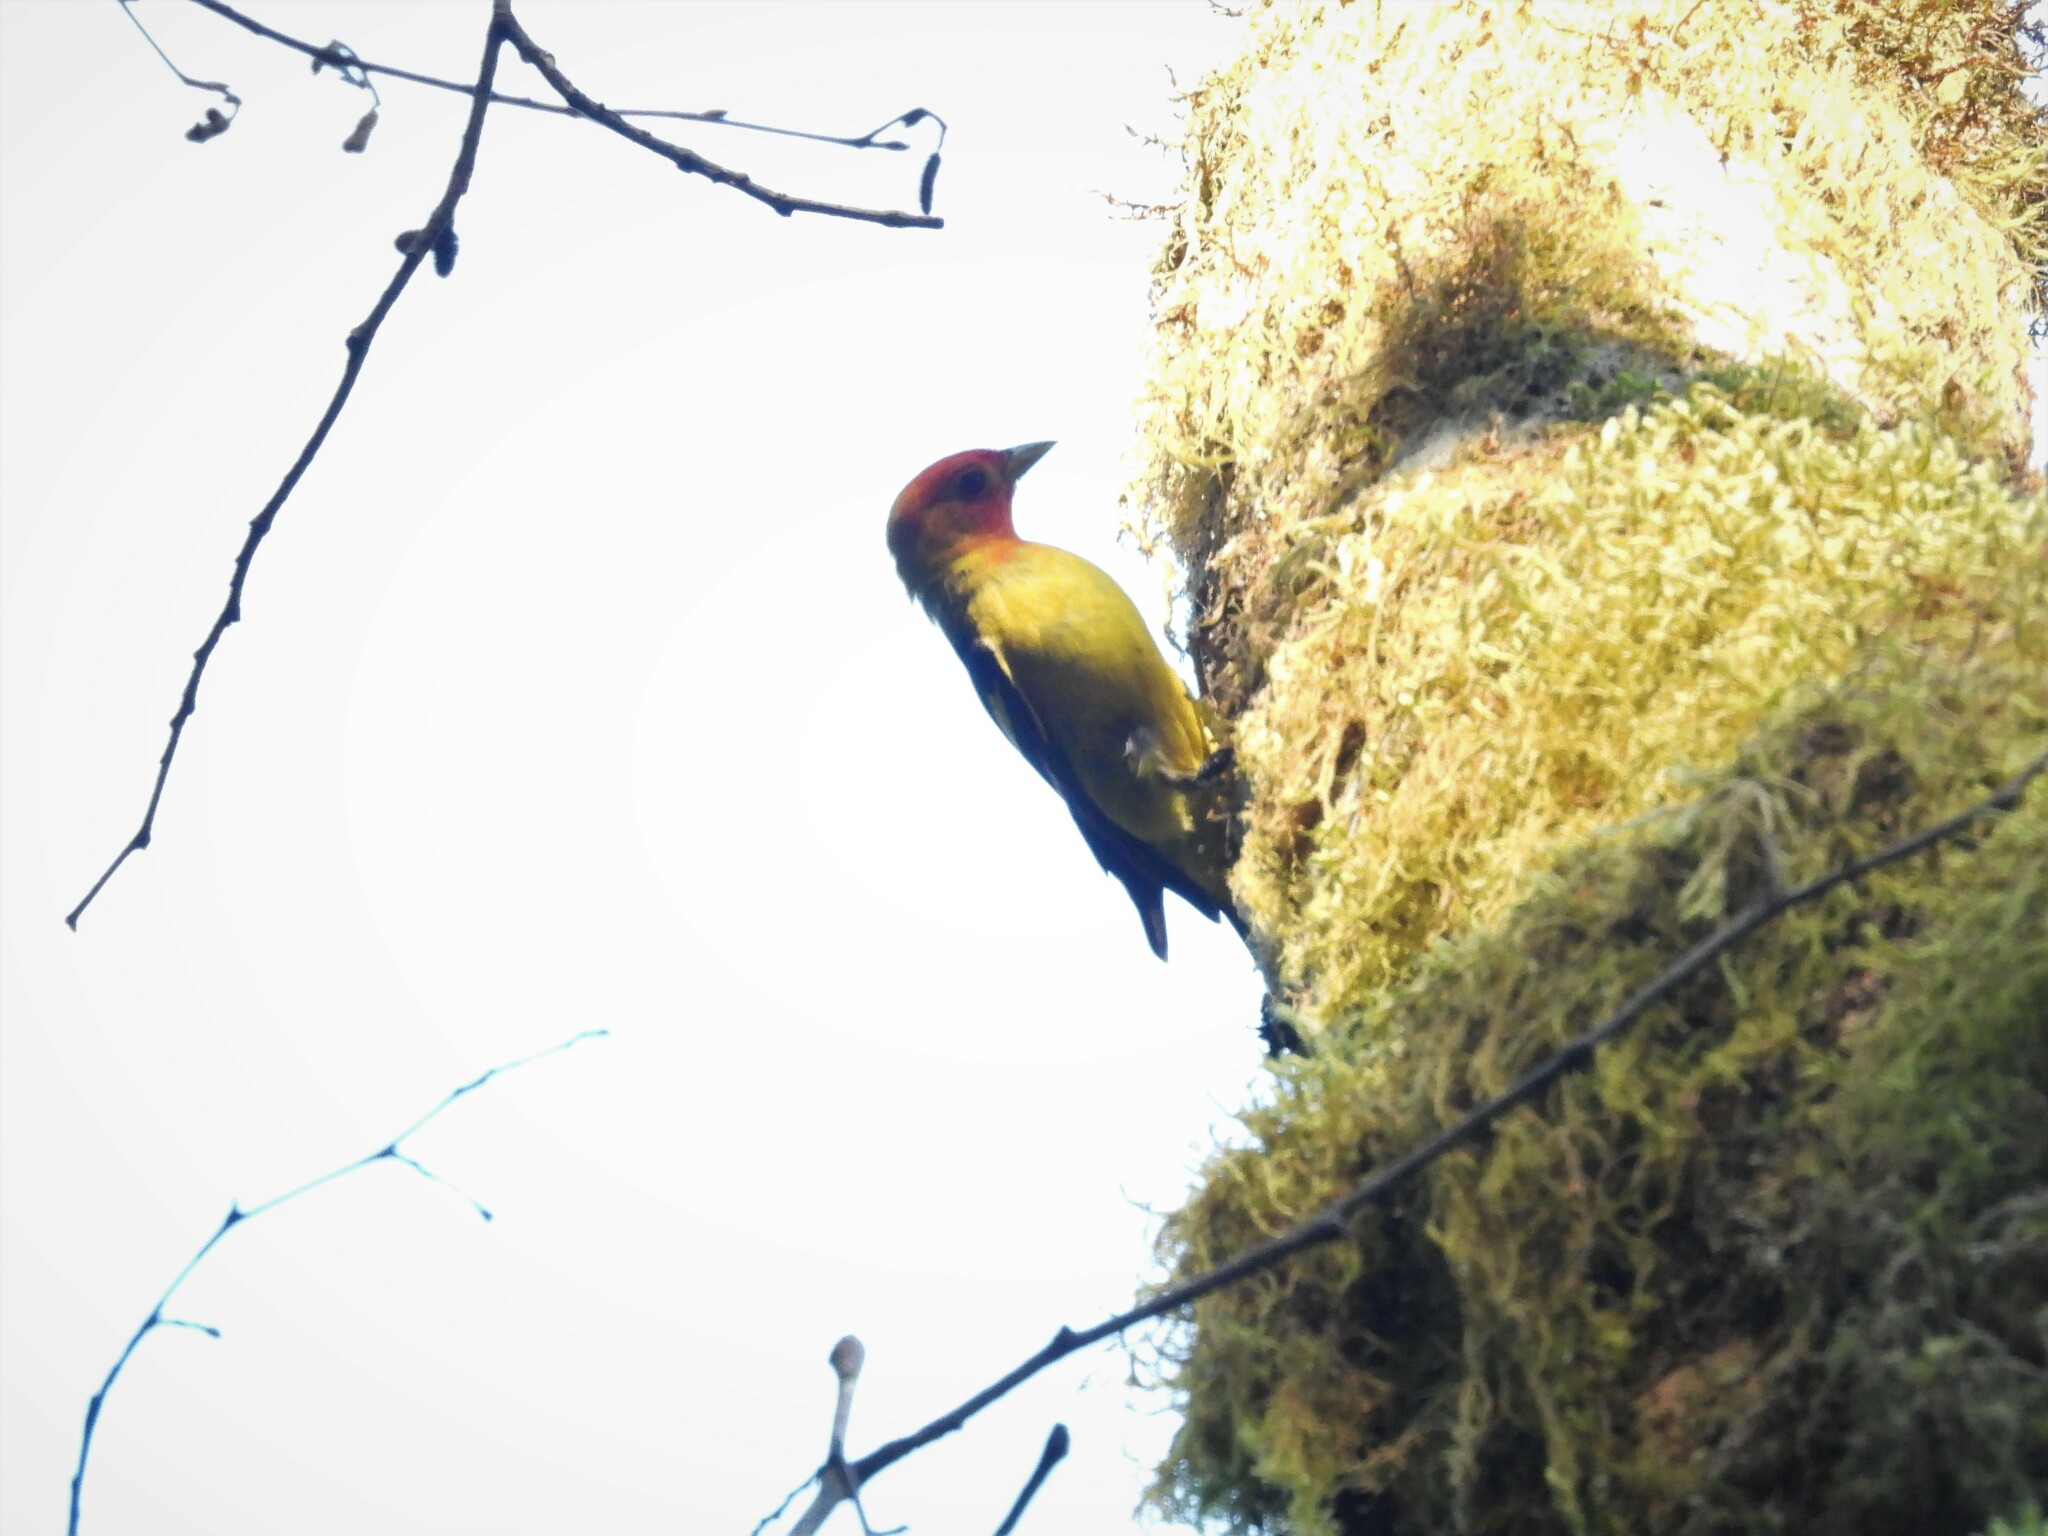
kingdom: Animalia
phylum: Chordata
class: Aves
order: Passeriformes
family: Cardinalidae
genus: Piranga
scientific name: Piranga ludoviciana
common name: Western tanager
